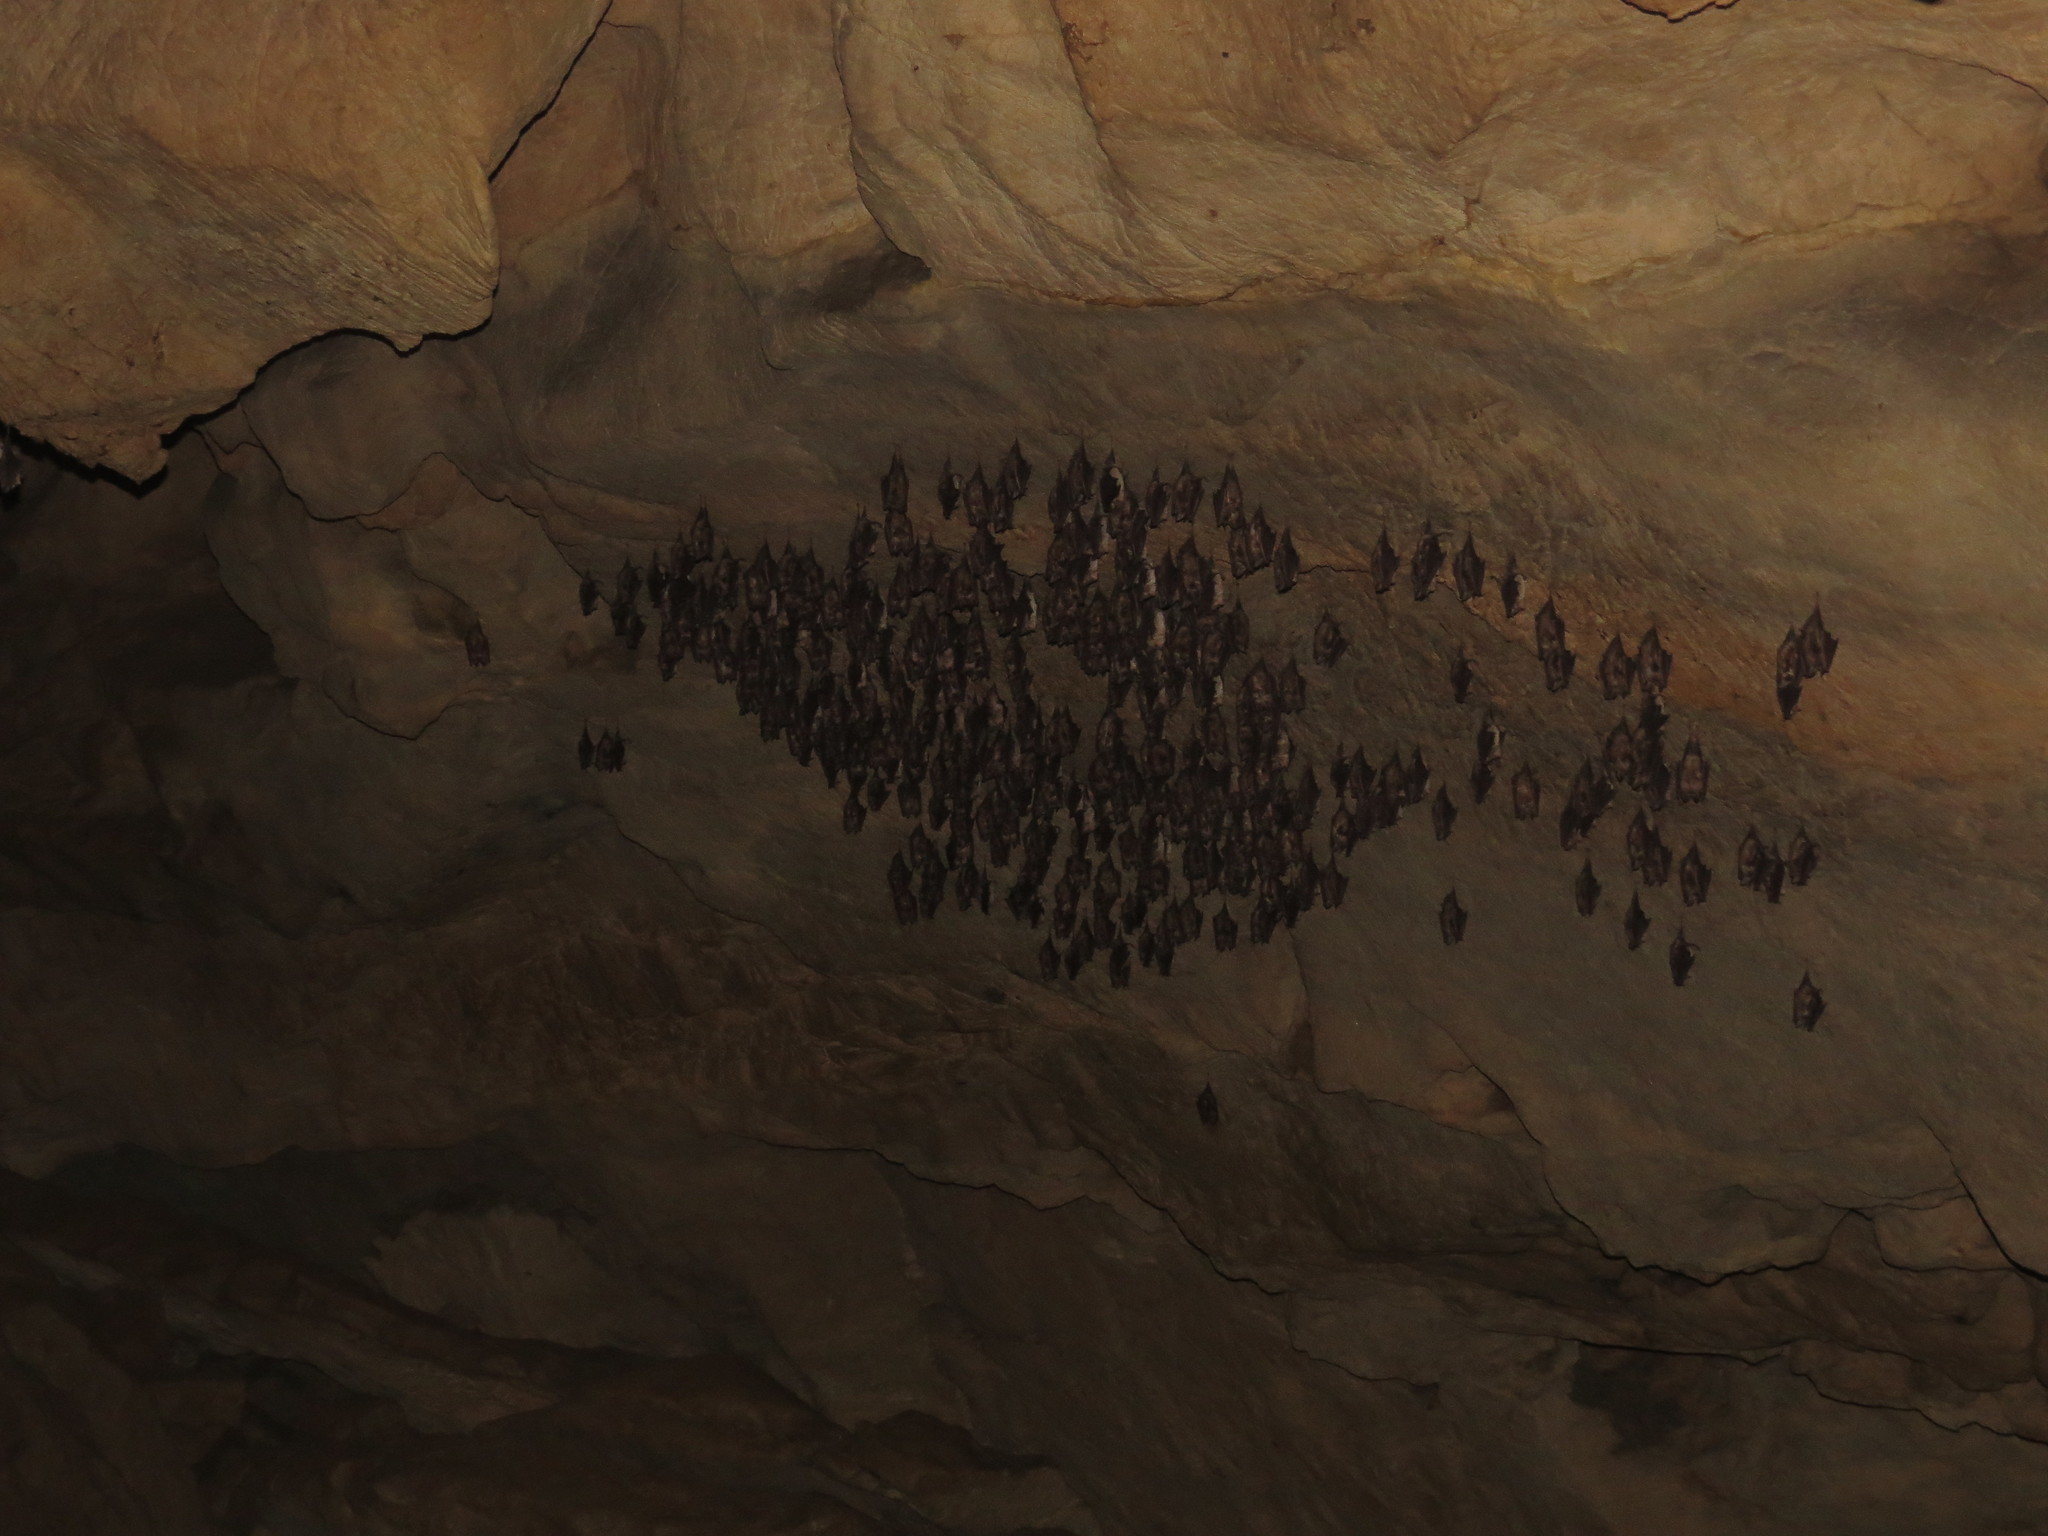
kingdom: Animalia
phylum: Chordata
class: Mammalia
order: Chiroptera
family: Rhinolophidae
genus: Rhinolophus
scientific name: Rhinolophus euryale
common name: Mediterranean horseshoe bat
